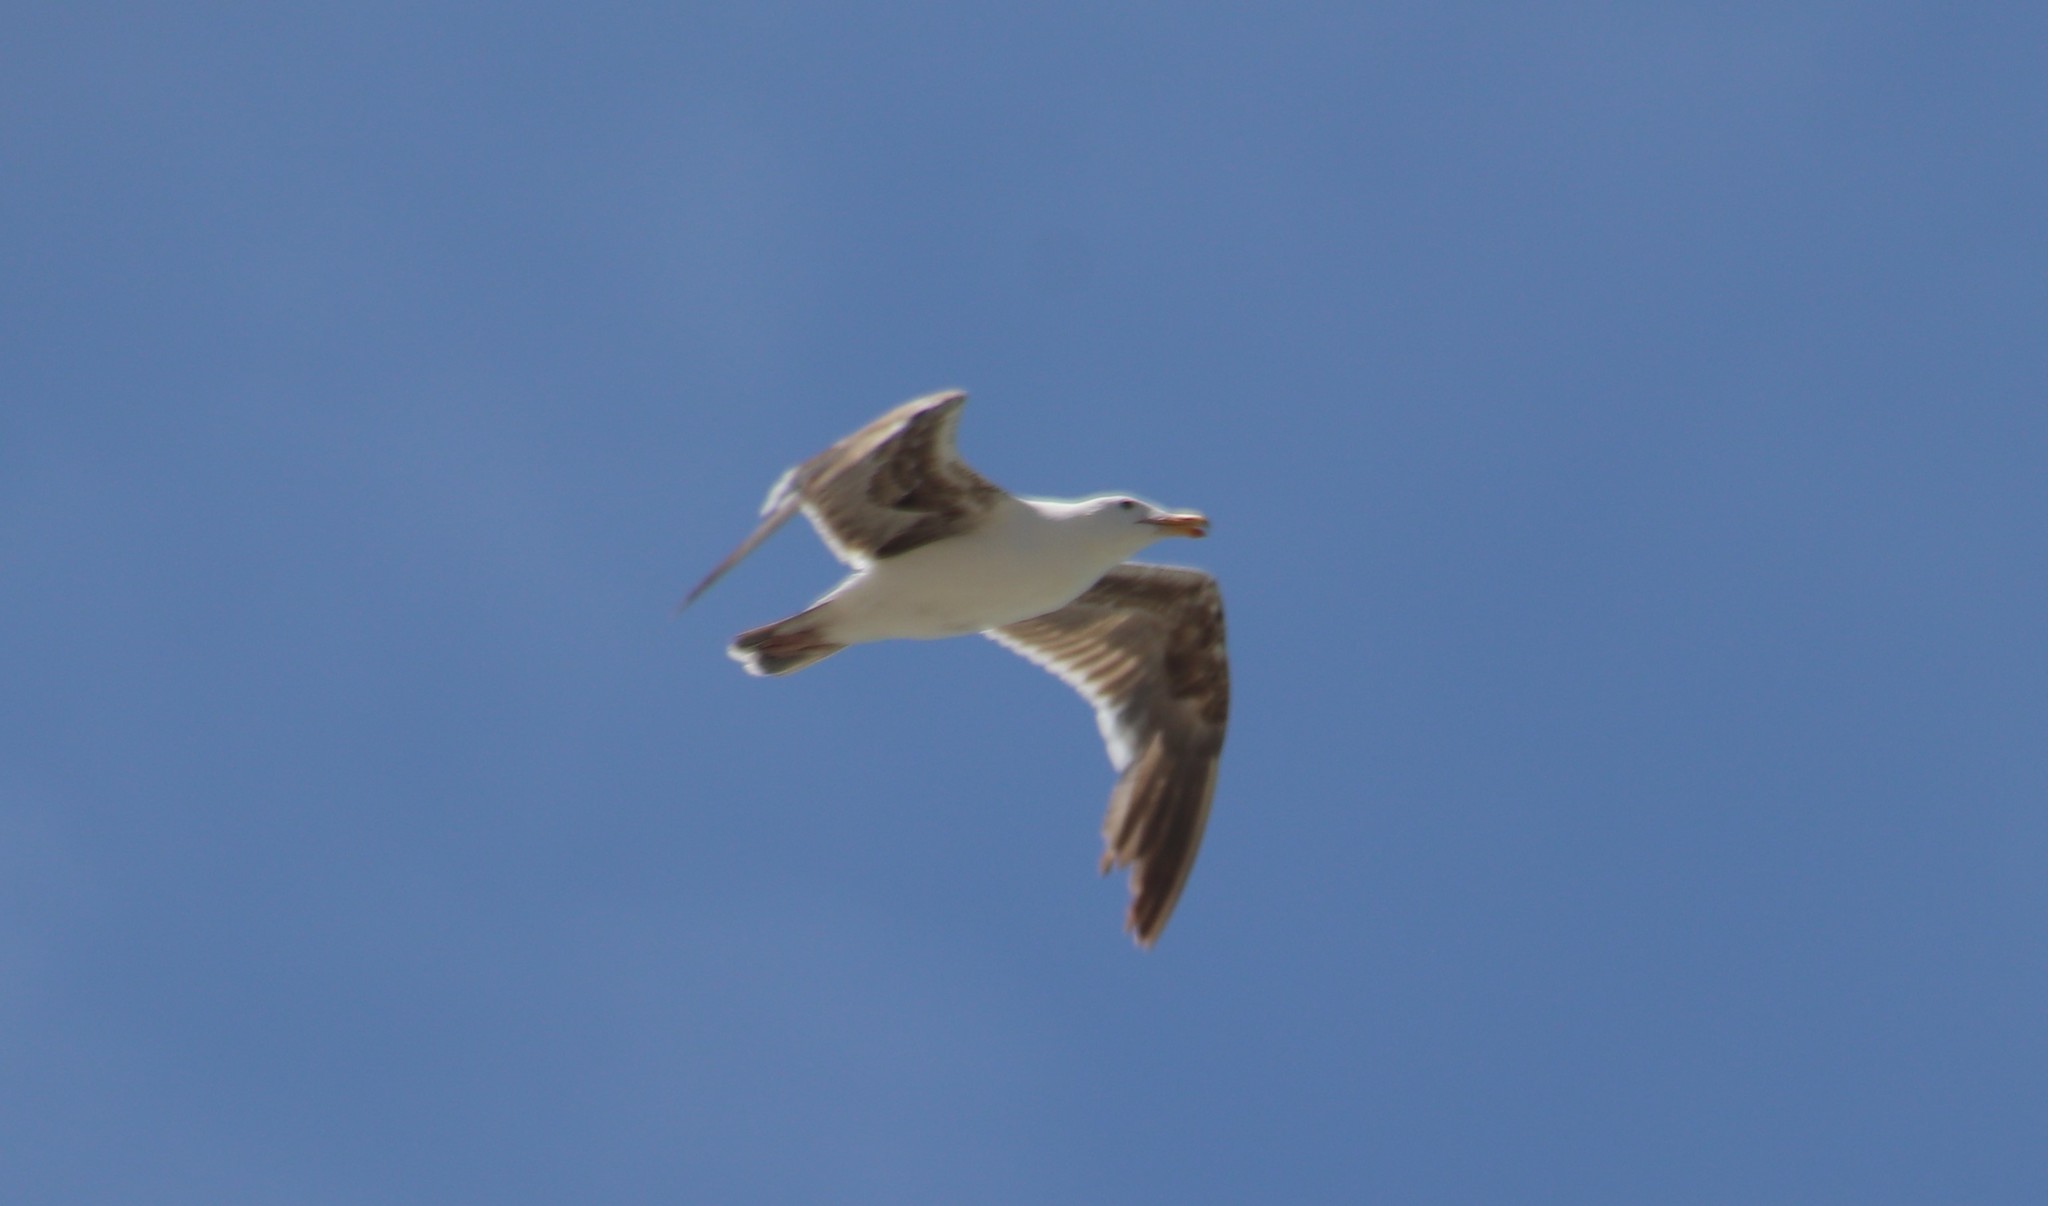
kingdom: Animalia
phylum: Chordata
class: Aves
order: Charadriiformes
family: Laridae
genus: Larus
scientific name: Larus occidentalis
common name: Western gull
